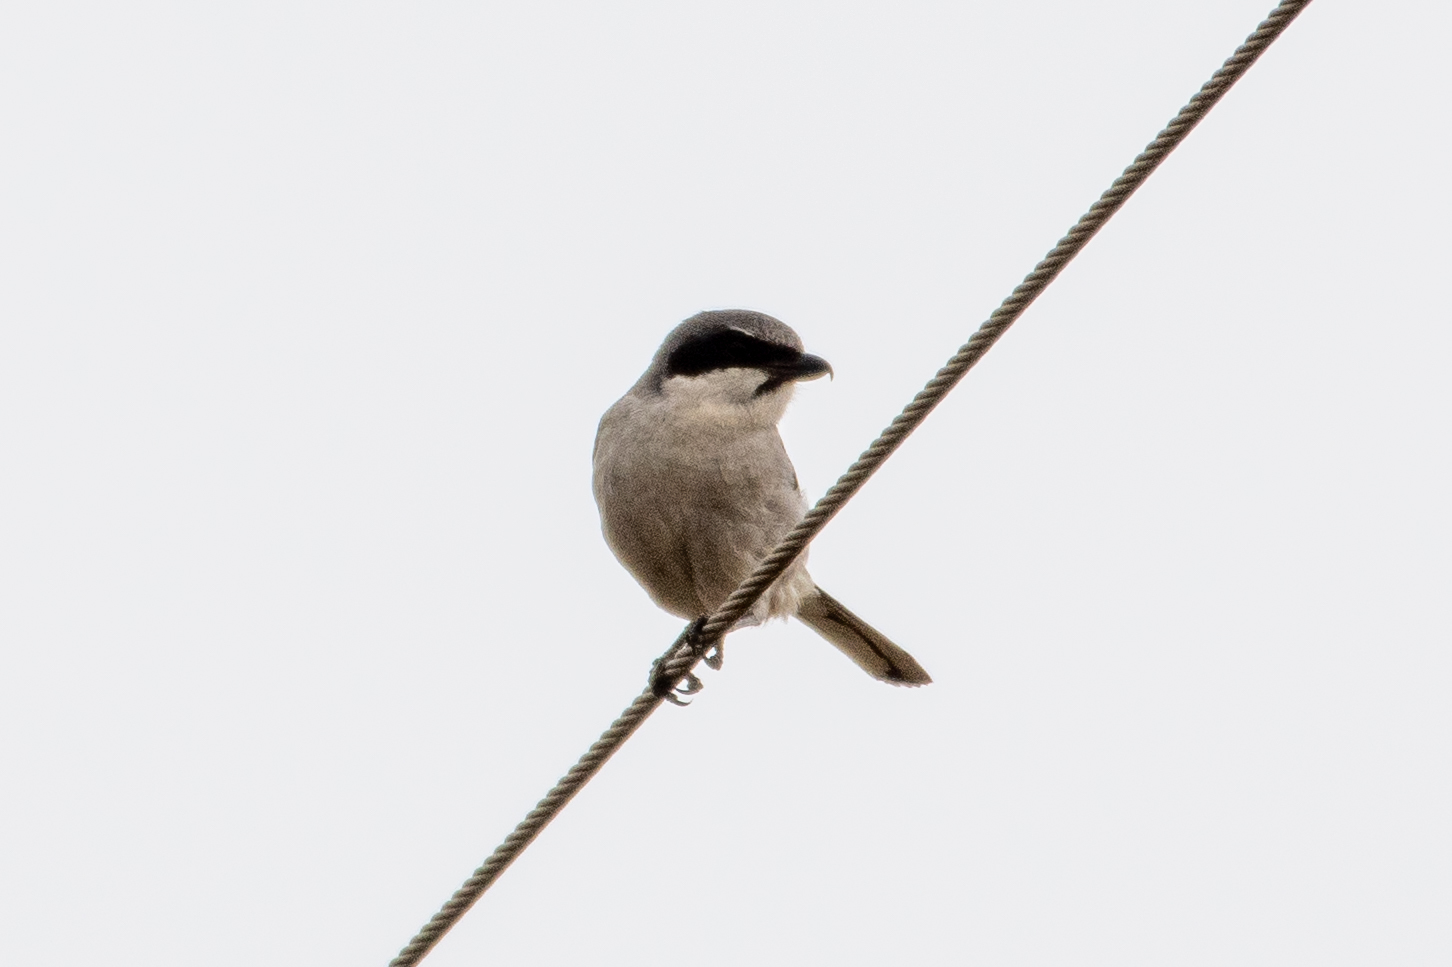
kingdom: Animalia
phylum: Chordata
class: Aves
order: Passeriformes
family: Laniidae
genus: Lanius
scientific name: Lanius ludovicianus
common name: Loggerhead shrike
